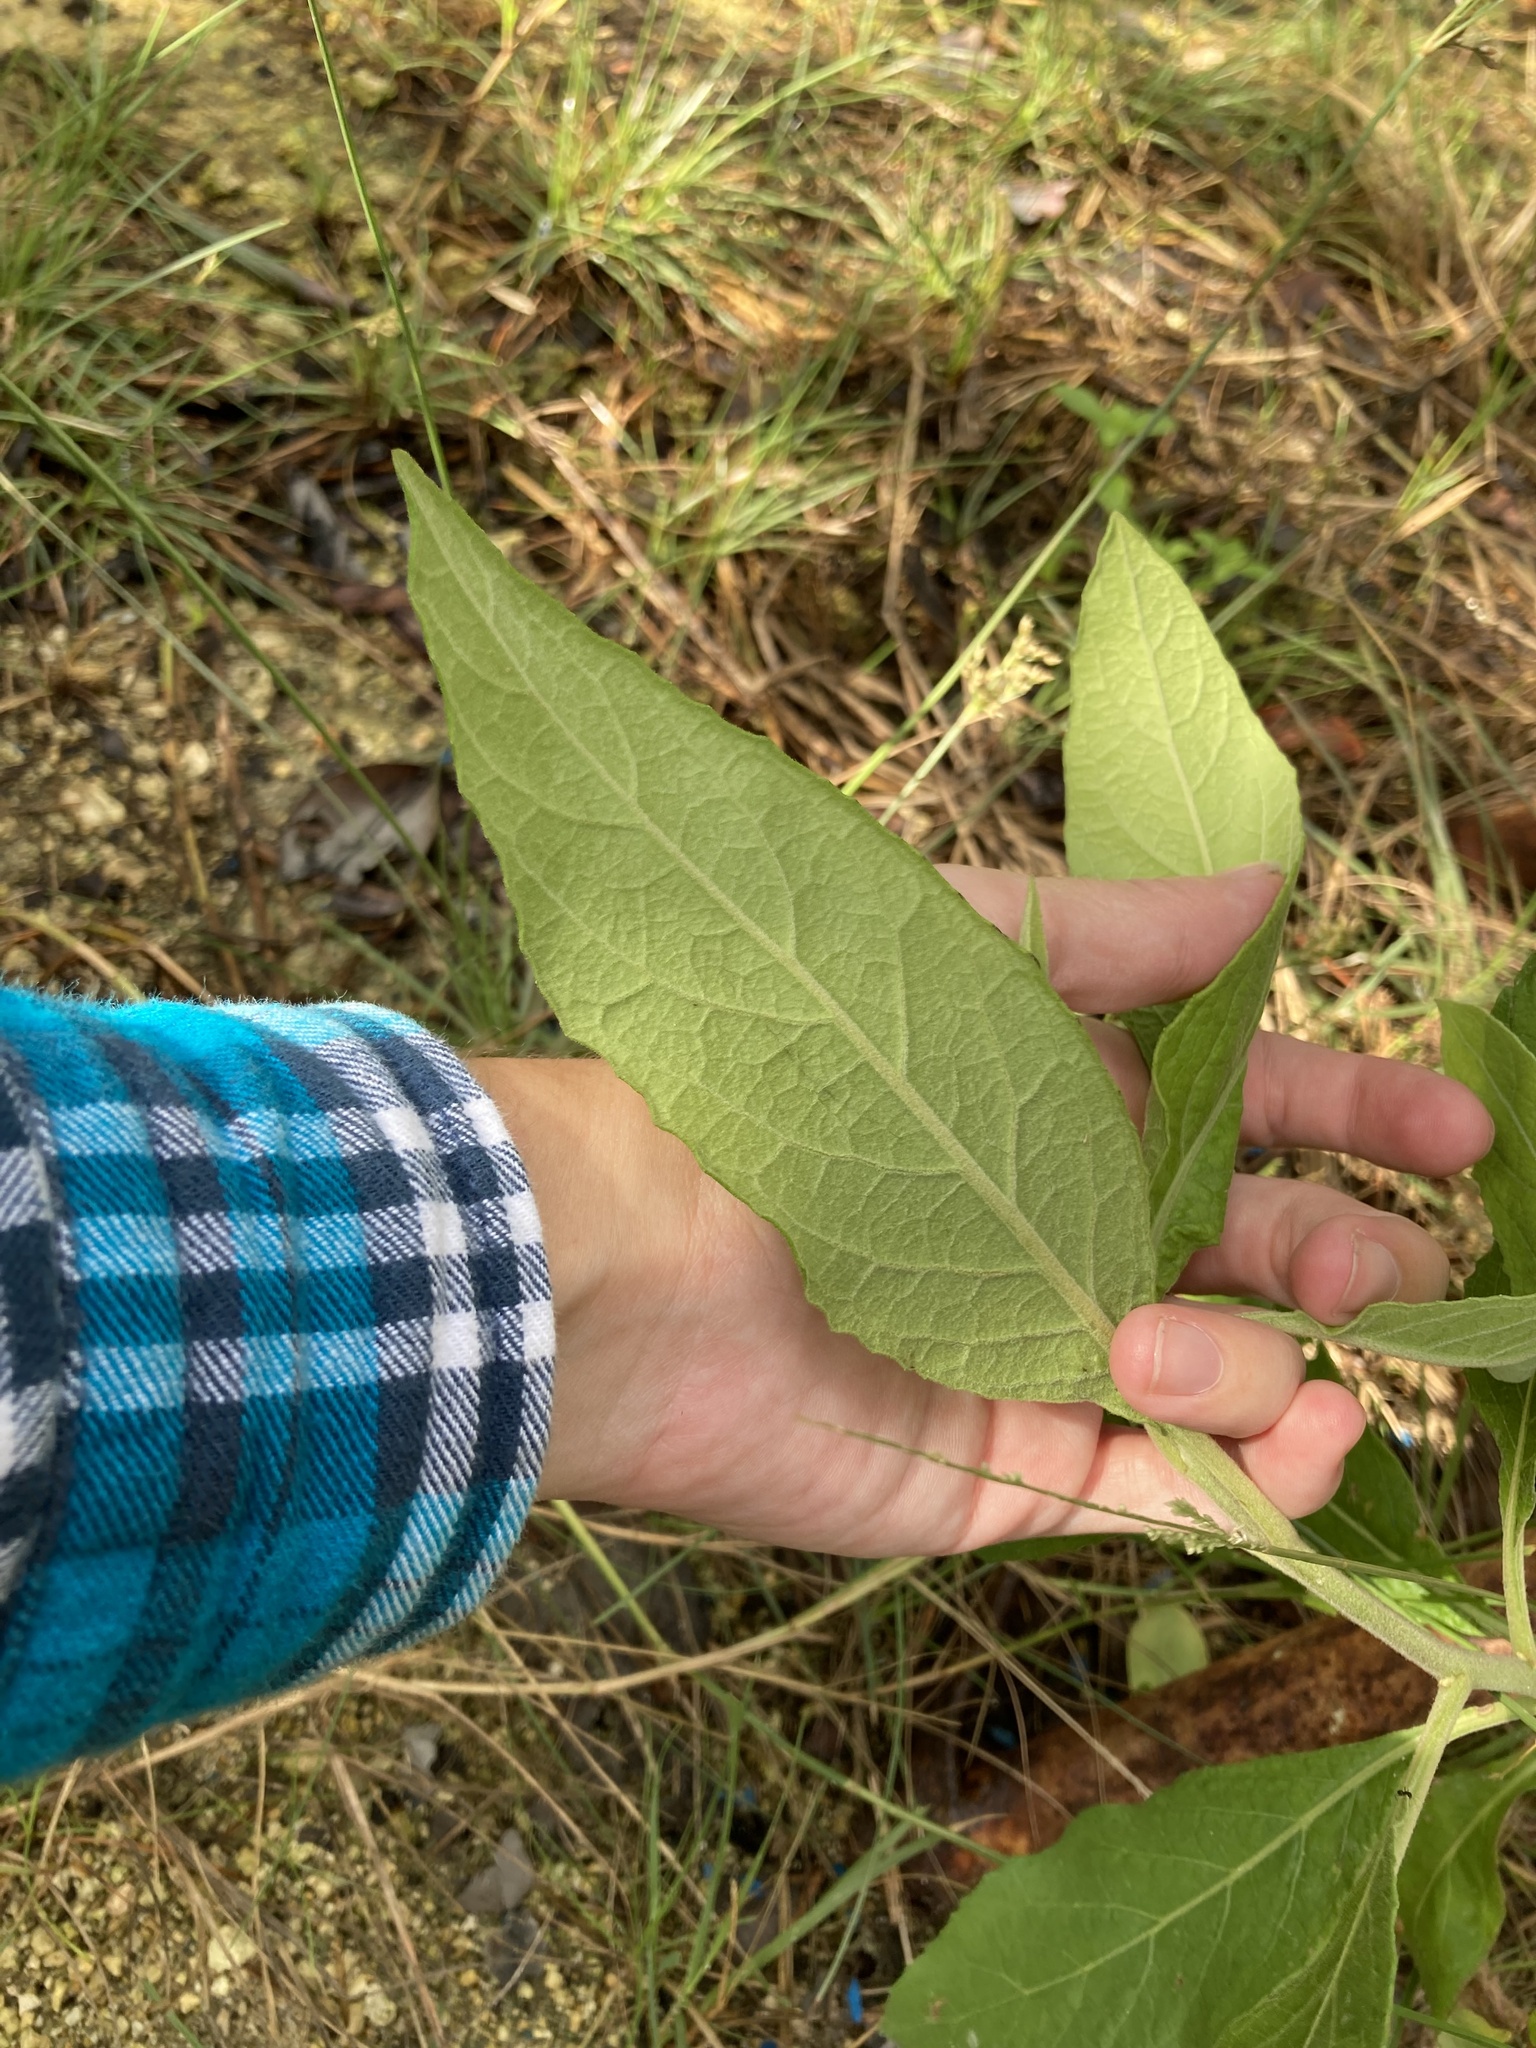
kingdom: Plantae
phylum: Tracheophyta
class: Magnoliopsida
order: Asterales
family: Asteraceae
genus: Pluchea
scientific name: Pluchea carolinensis
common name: Marsh fleabane
